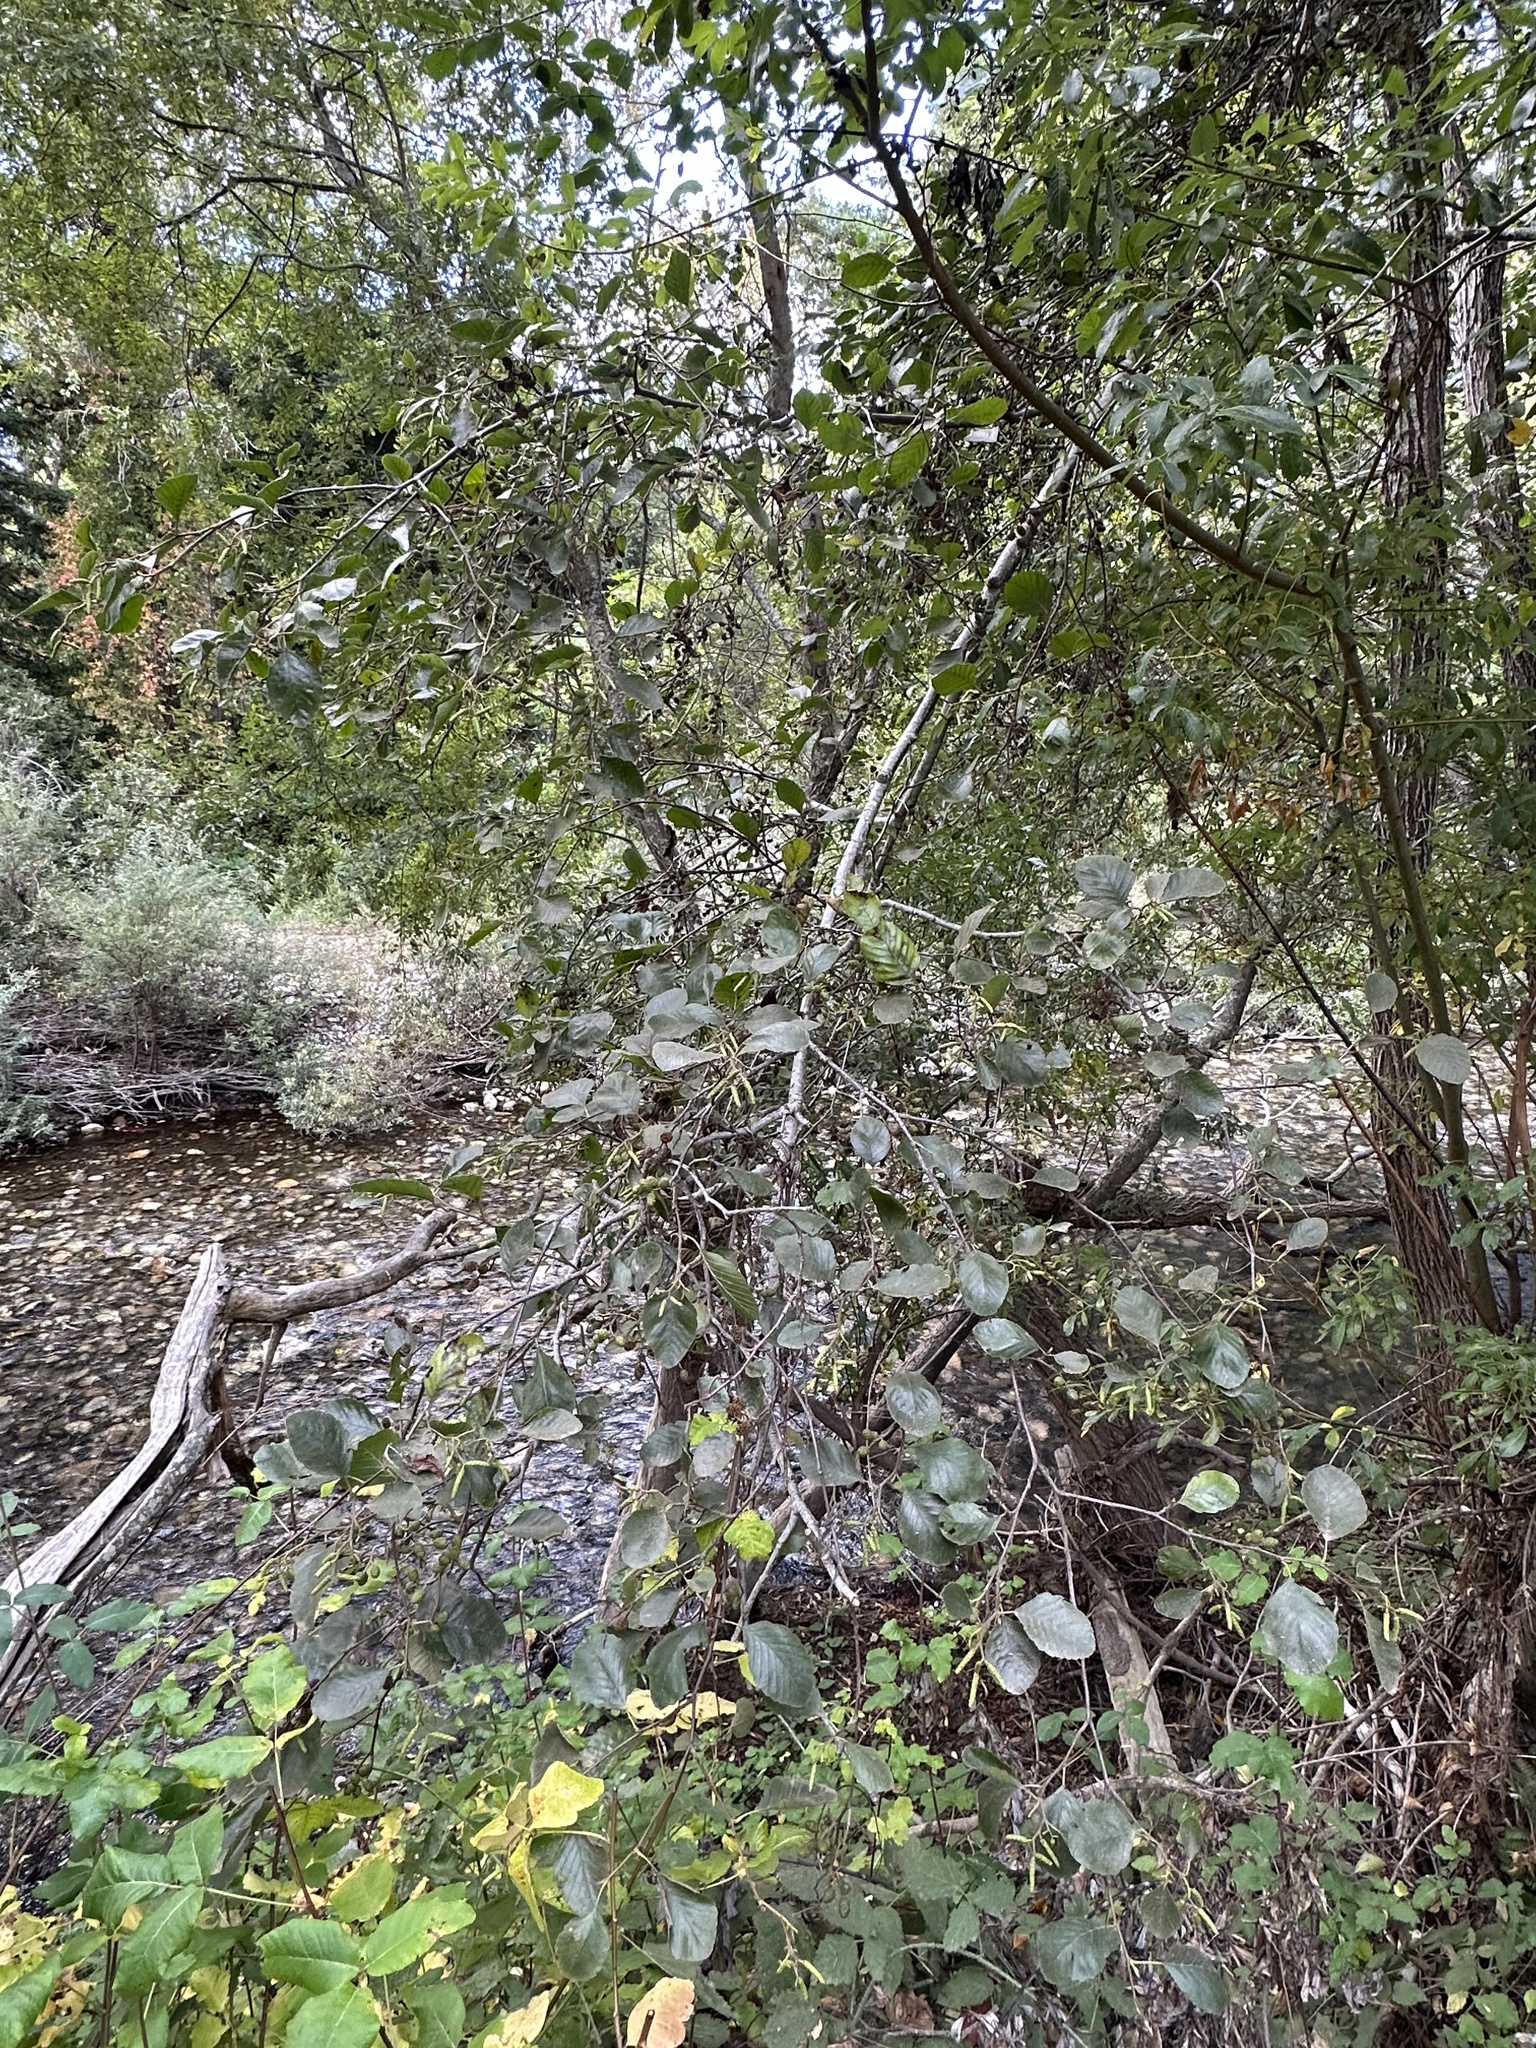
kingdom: Plantae
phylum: Tracheophyta
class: Magnoliopsida
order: Fagales
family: Betulaceae
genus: Alnus
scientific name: Alnus rhombifolia
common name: California alder
